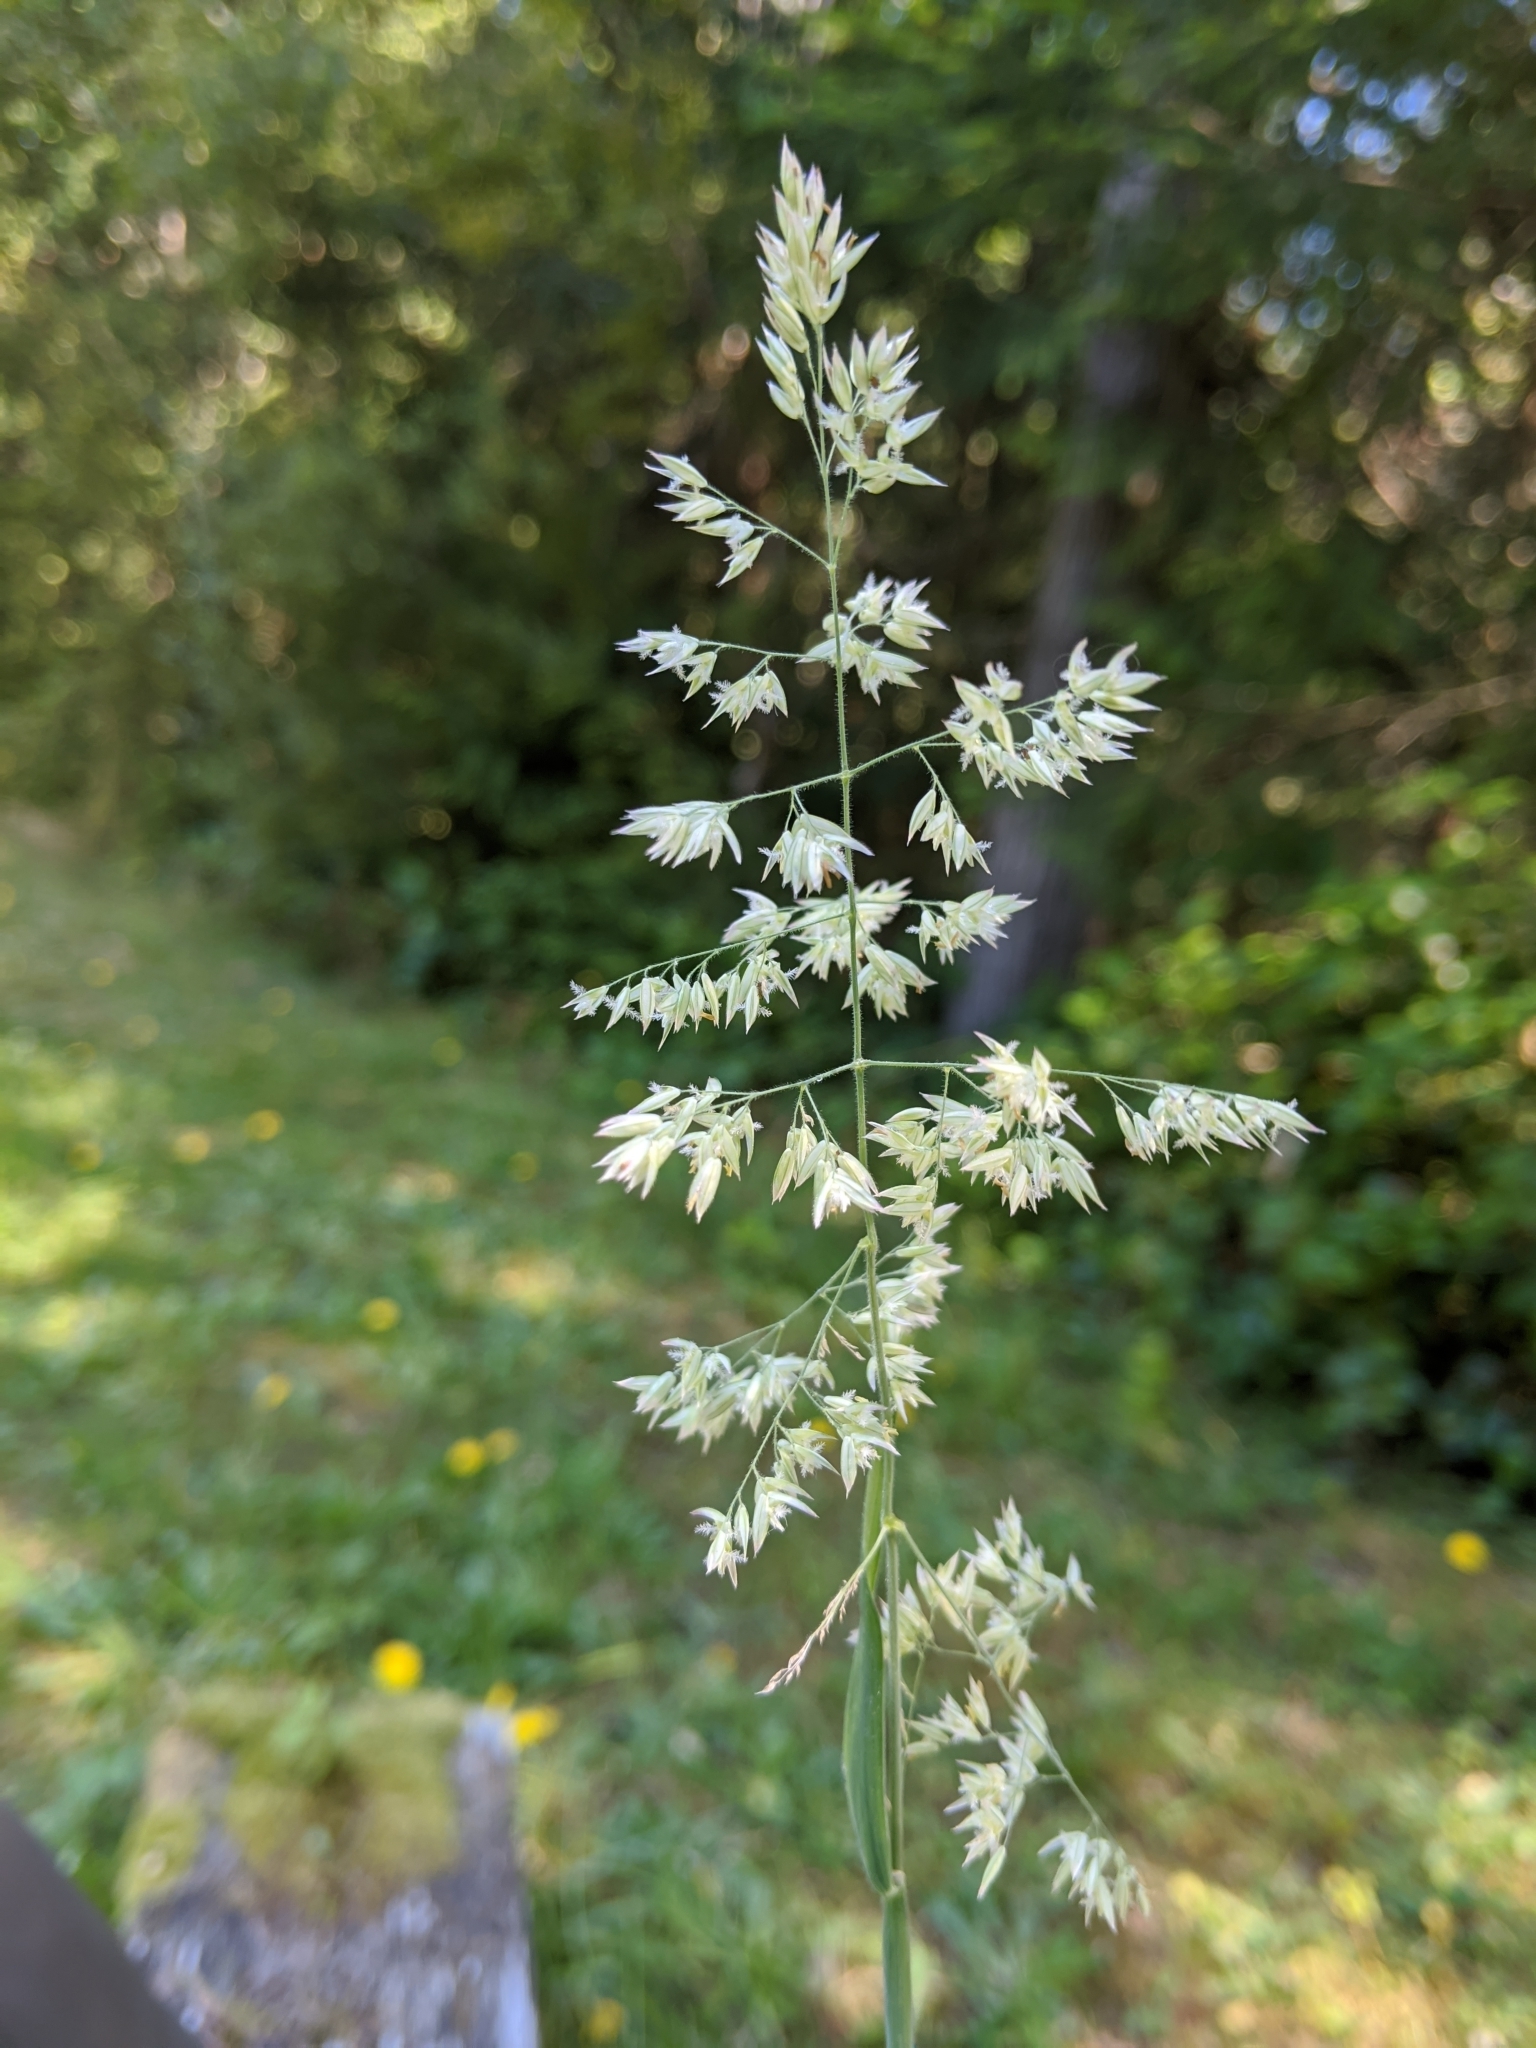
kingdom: Plantae
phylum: Tracheophyta
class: Liliopsida
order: Poales
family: Poaceae
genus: Holcus
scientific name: Holcus lanatus
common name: Yorkshire-fog
